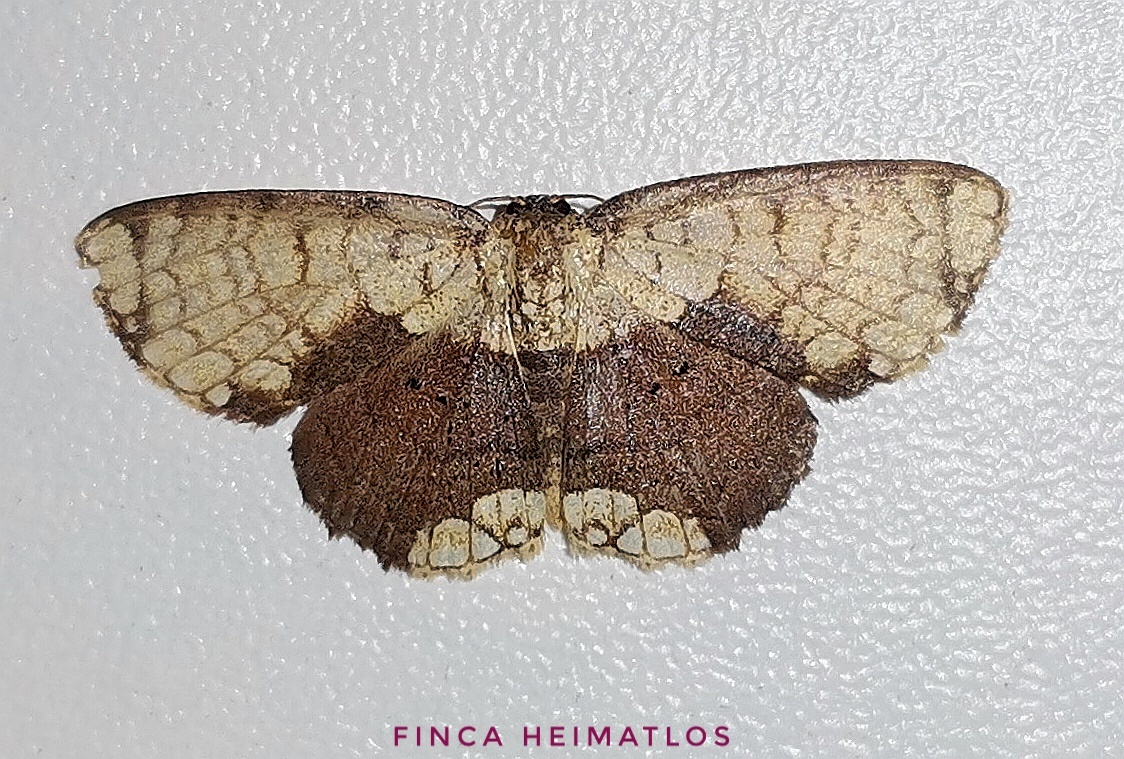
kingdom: Animalia
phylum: Arthropoda
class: Insecta
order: Lepidoptera
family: Geometridae
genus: Semaeopus
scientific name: Semaeopus semibrunnea
